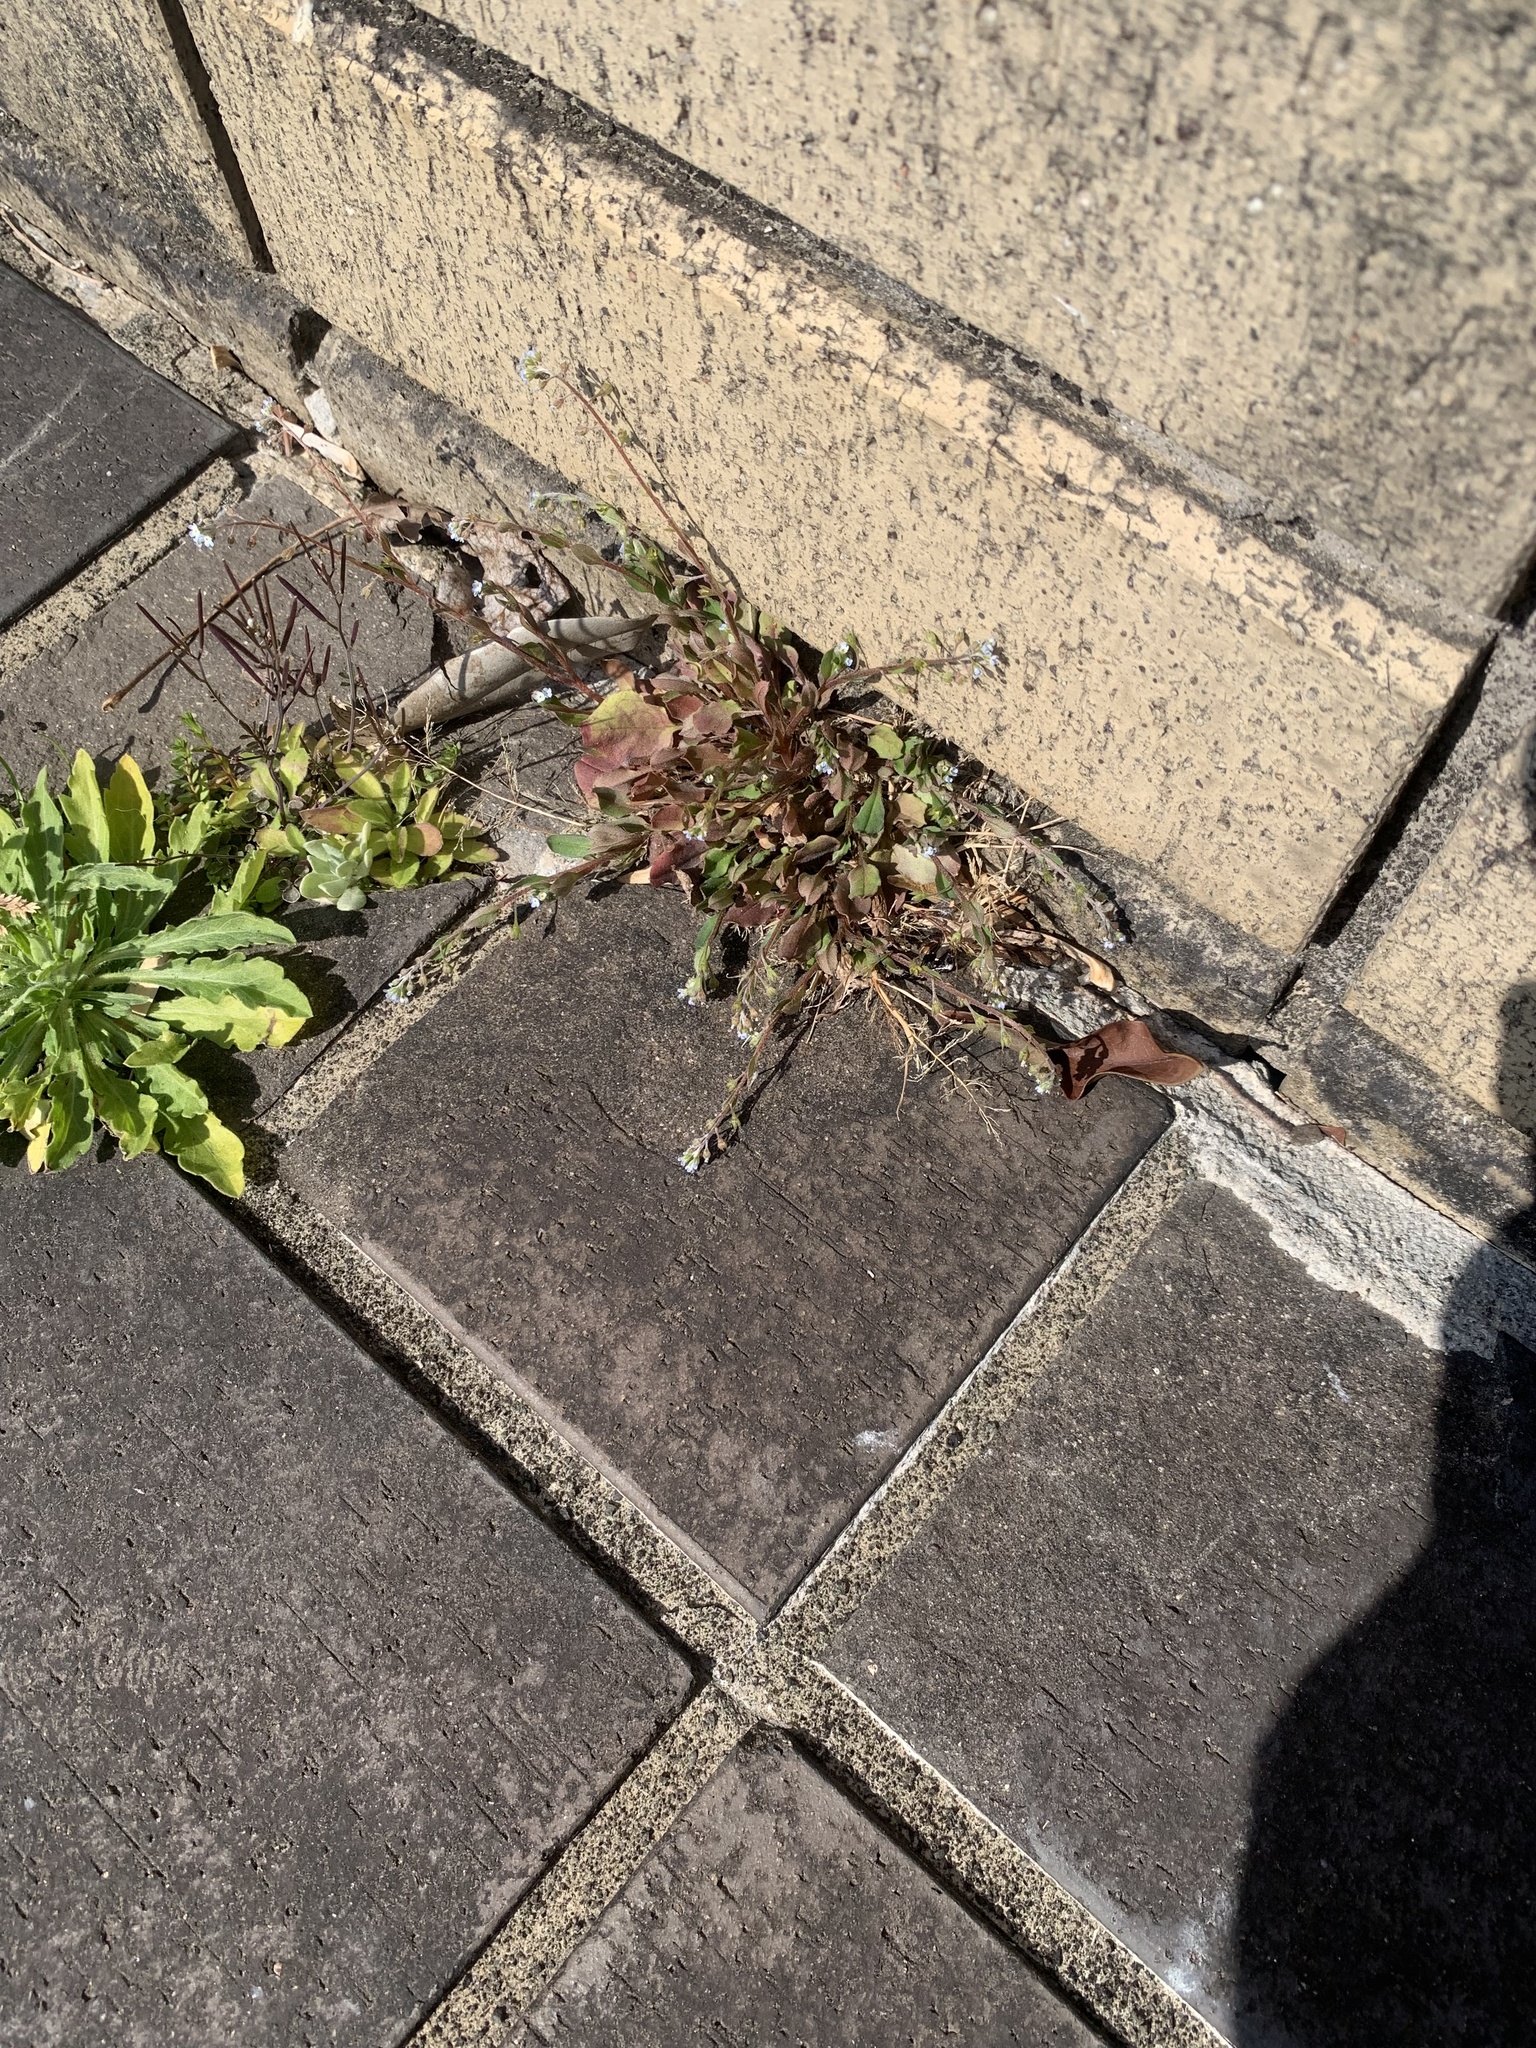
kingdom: Plantae
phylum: Tracheophyta
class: Magnoliopsida
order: Boraginales
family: Boraginaceae
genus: Trigonotis
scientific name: Trigonotis peduncularis
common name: Cucumber herb
